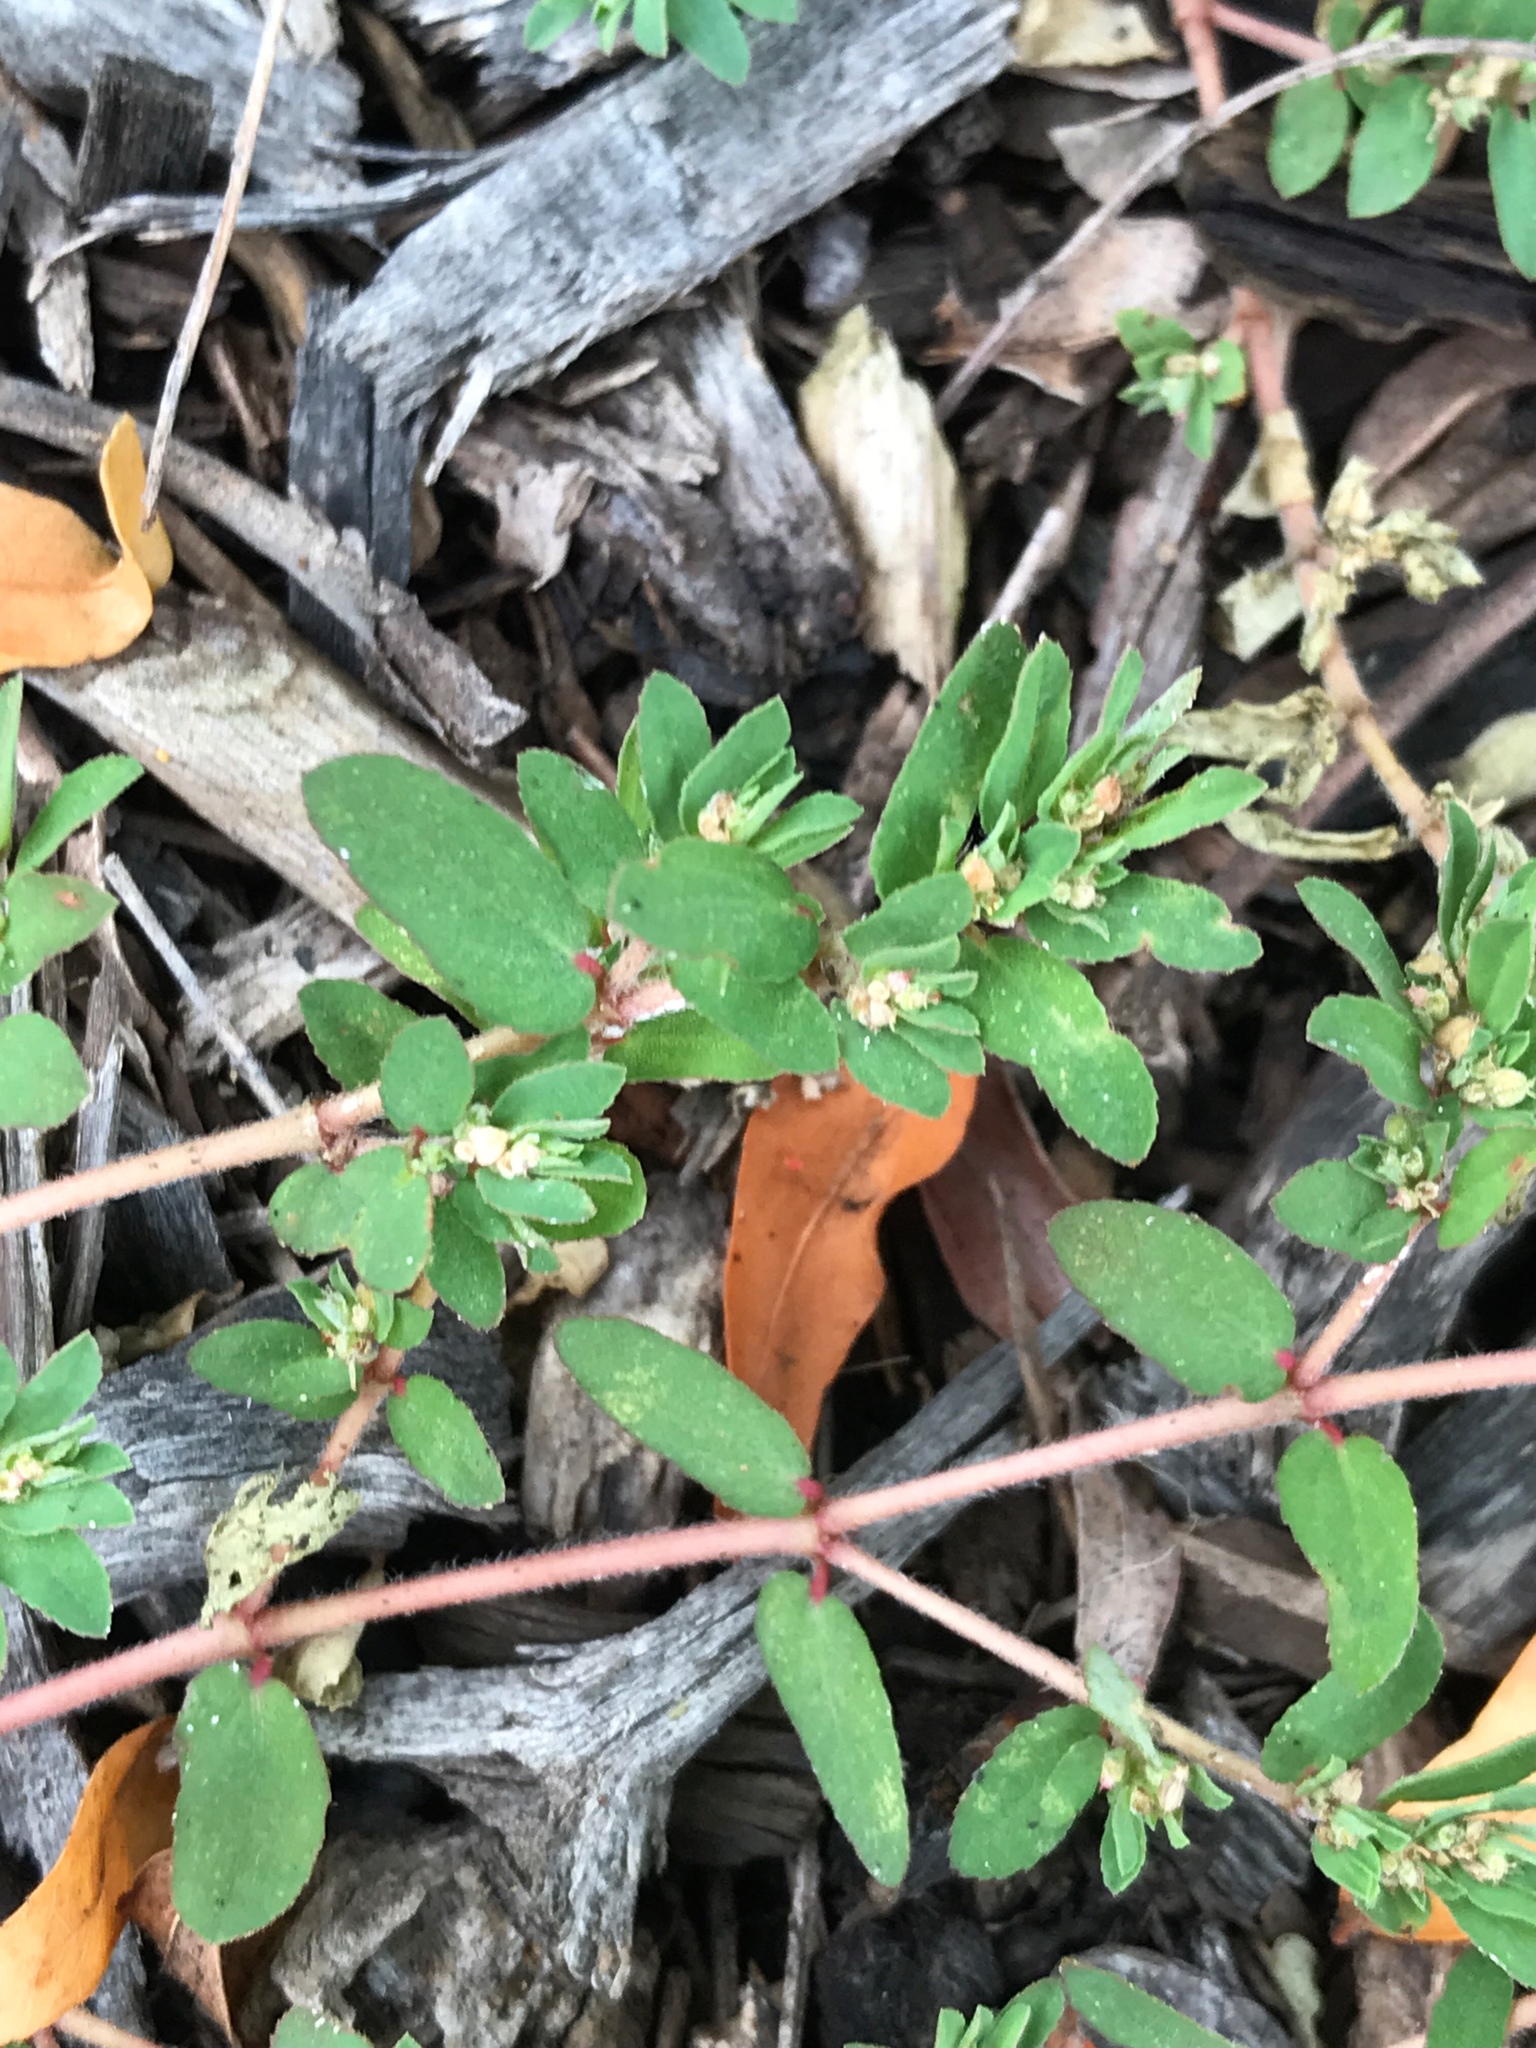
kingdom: Plantae
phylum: Tracheophyta
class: Magnoliopsida
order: Malpighiales
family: Euphorbiaceae
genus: Euphorbia
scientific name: Euphorbia maculata
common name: Spotted spurge
